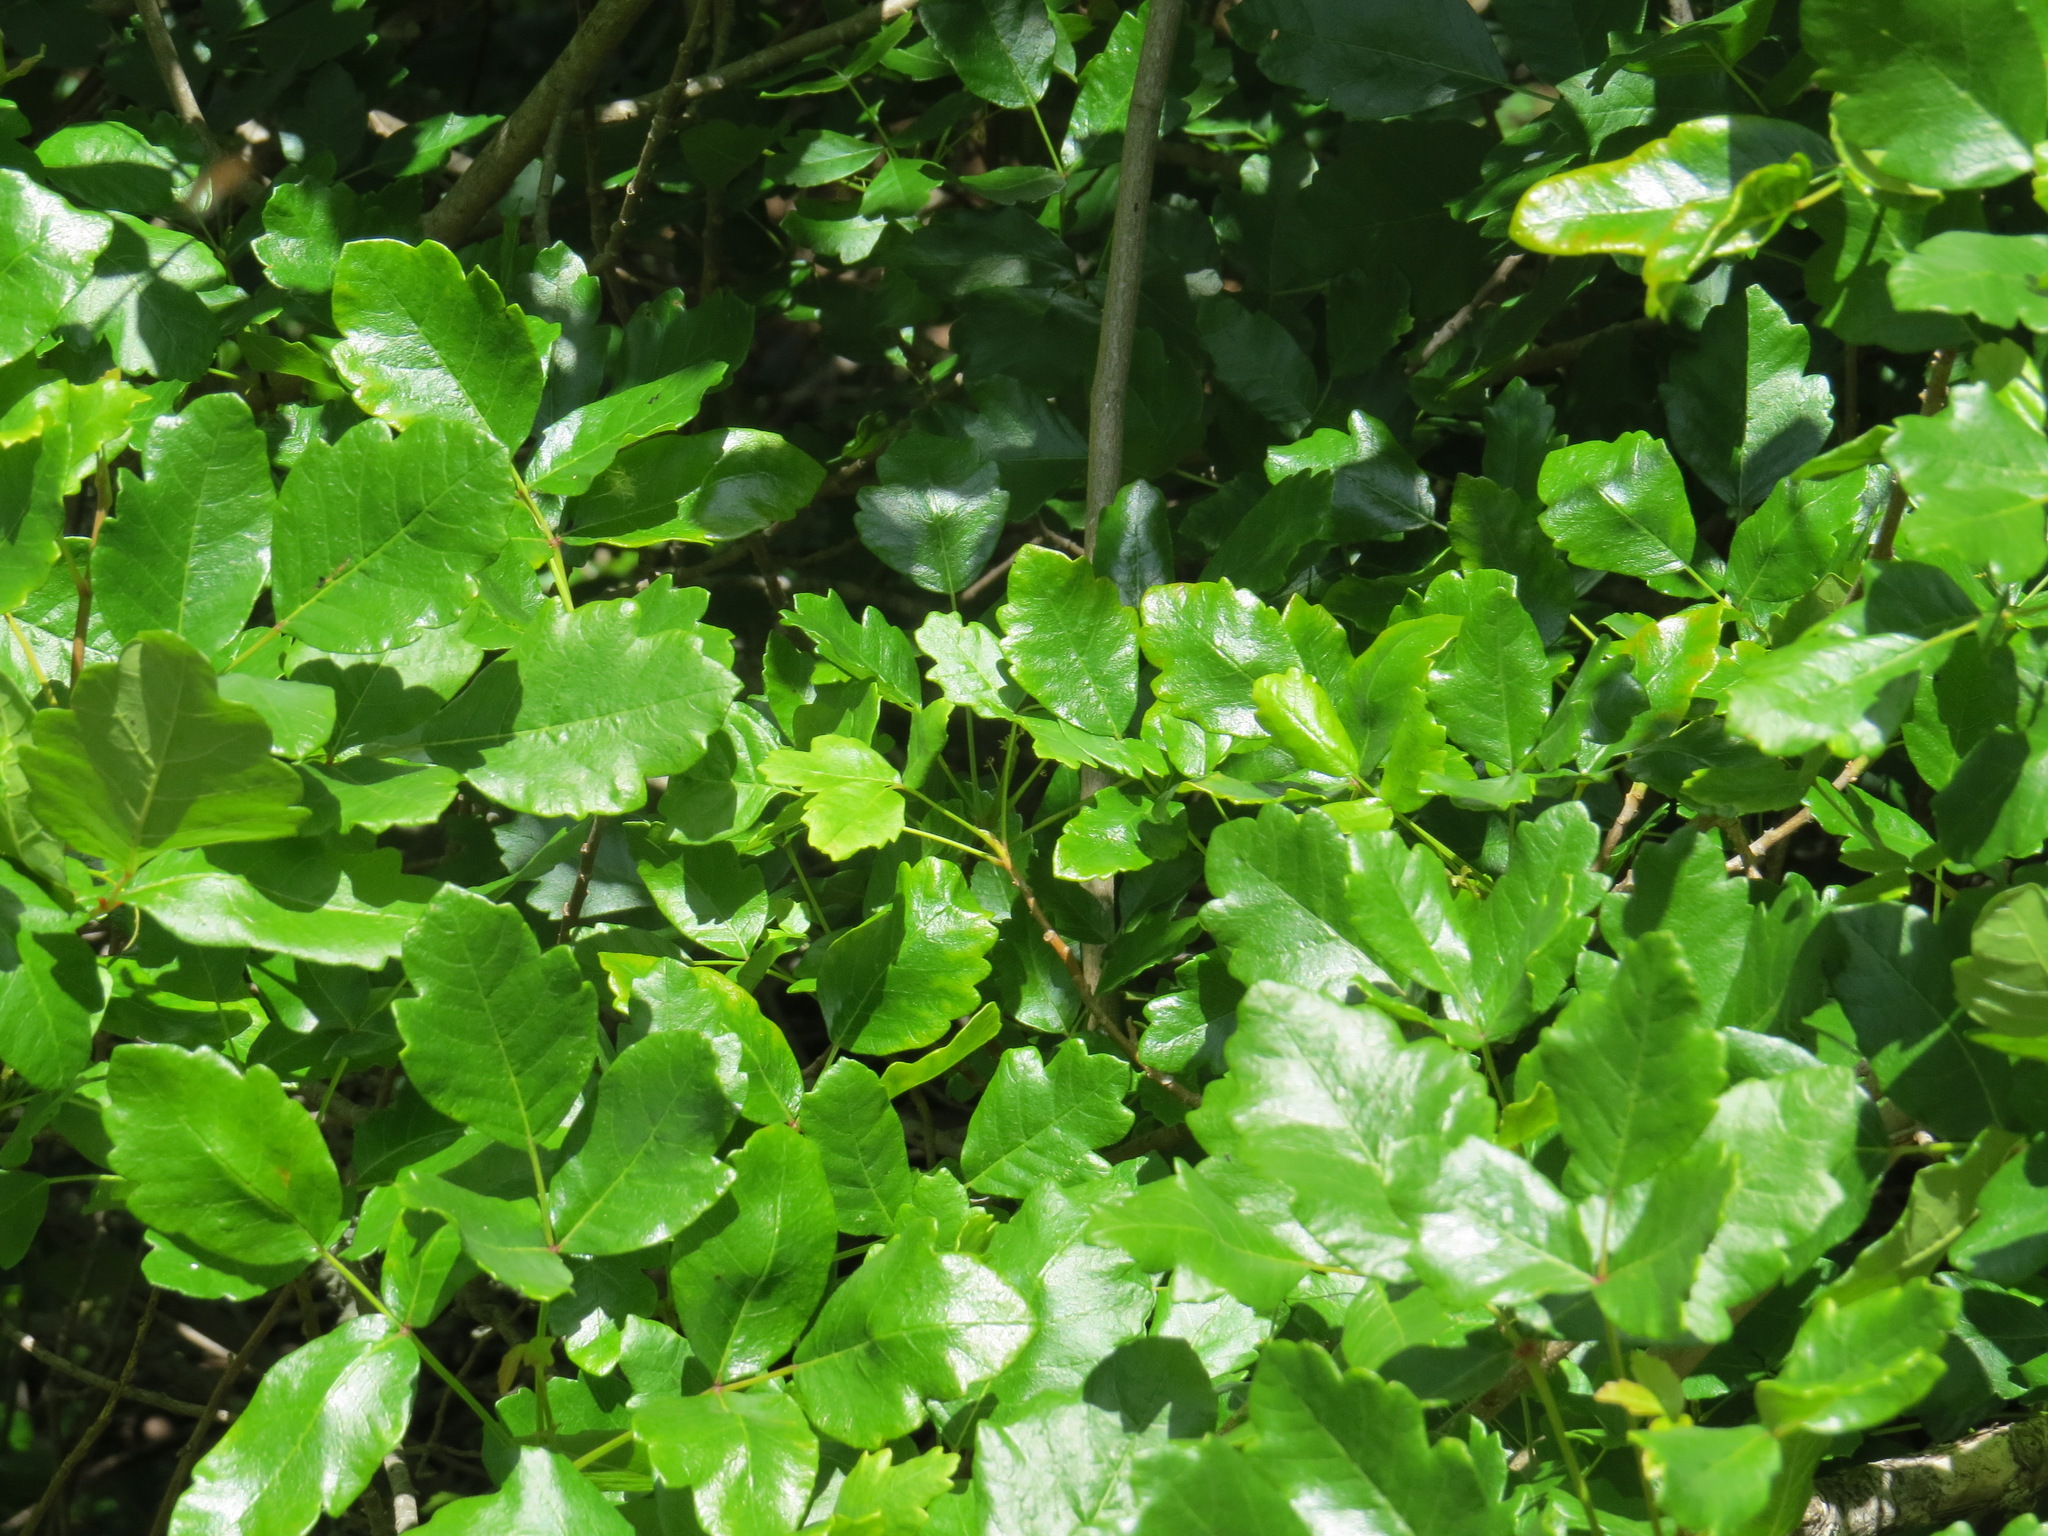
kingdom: Plantae
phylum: Tracheophyta
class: Magnoliopsida
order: Sapindales
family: Anacardiaceae
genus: Toxicodendron
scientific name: Toxicodendron diversilobum
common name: Pacific poison-oak
